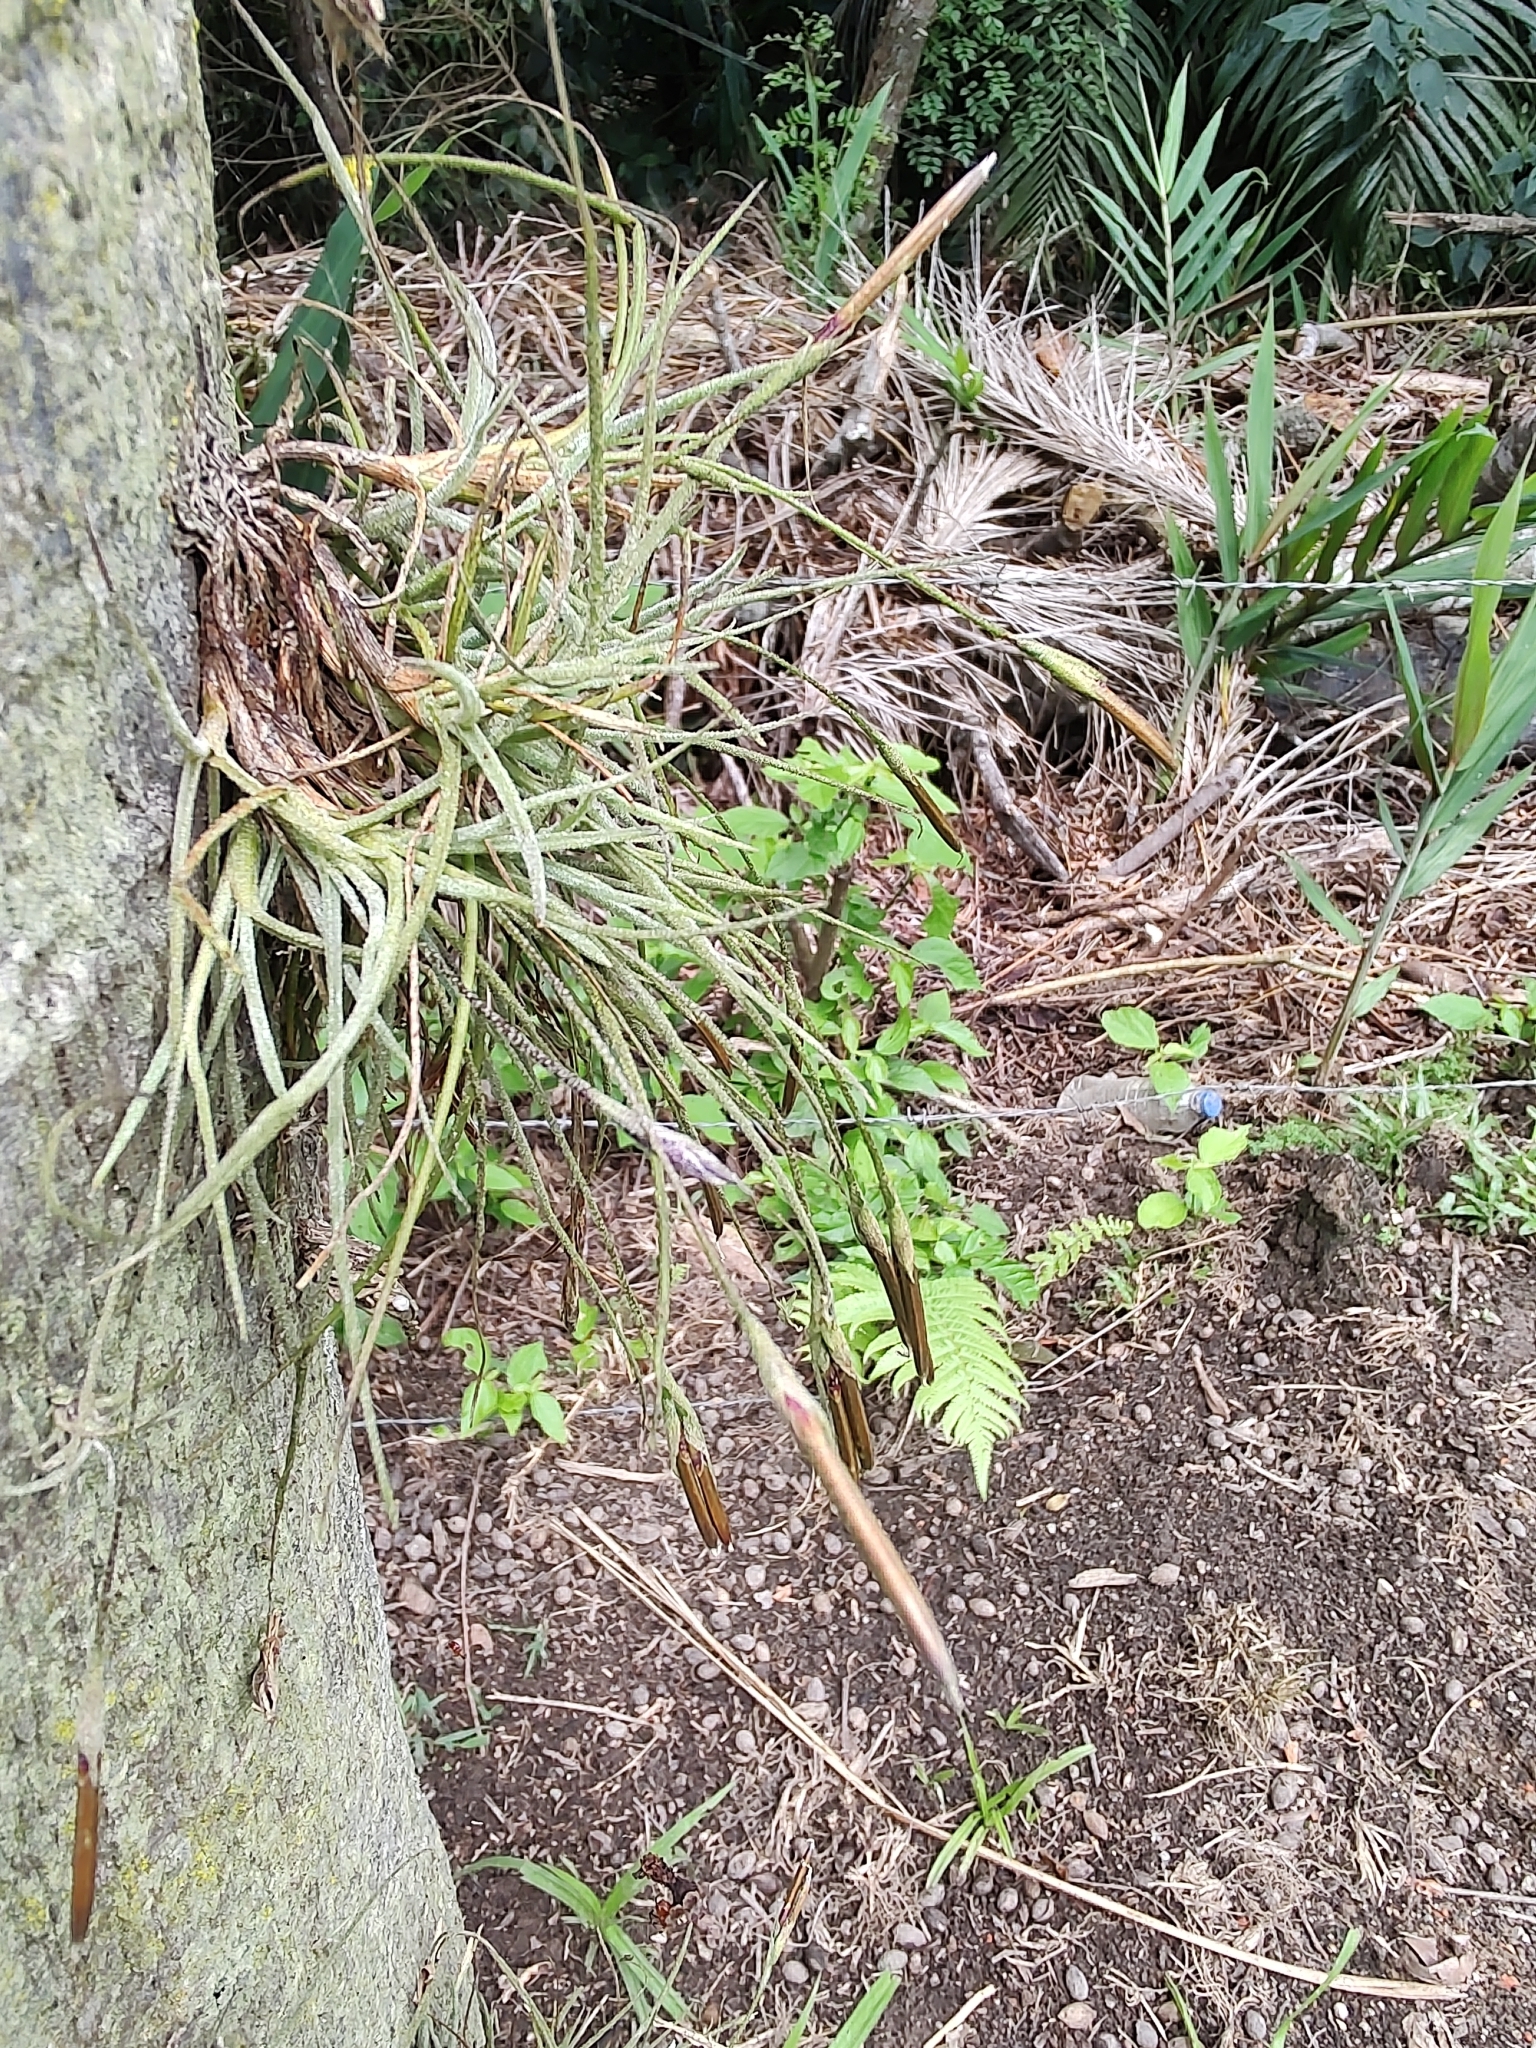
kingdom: Plantae
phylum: Tracheophyta
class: Liliopsida
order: Poales
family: Bromeliaceae
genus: Tillandsia
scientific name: Tillandsia recurvata
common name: Small ballmoss
